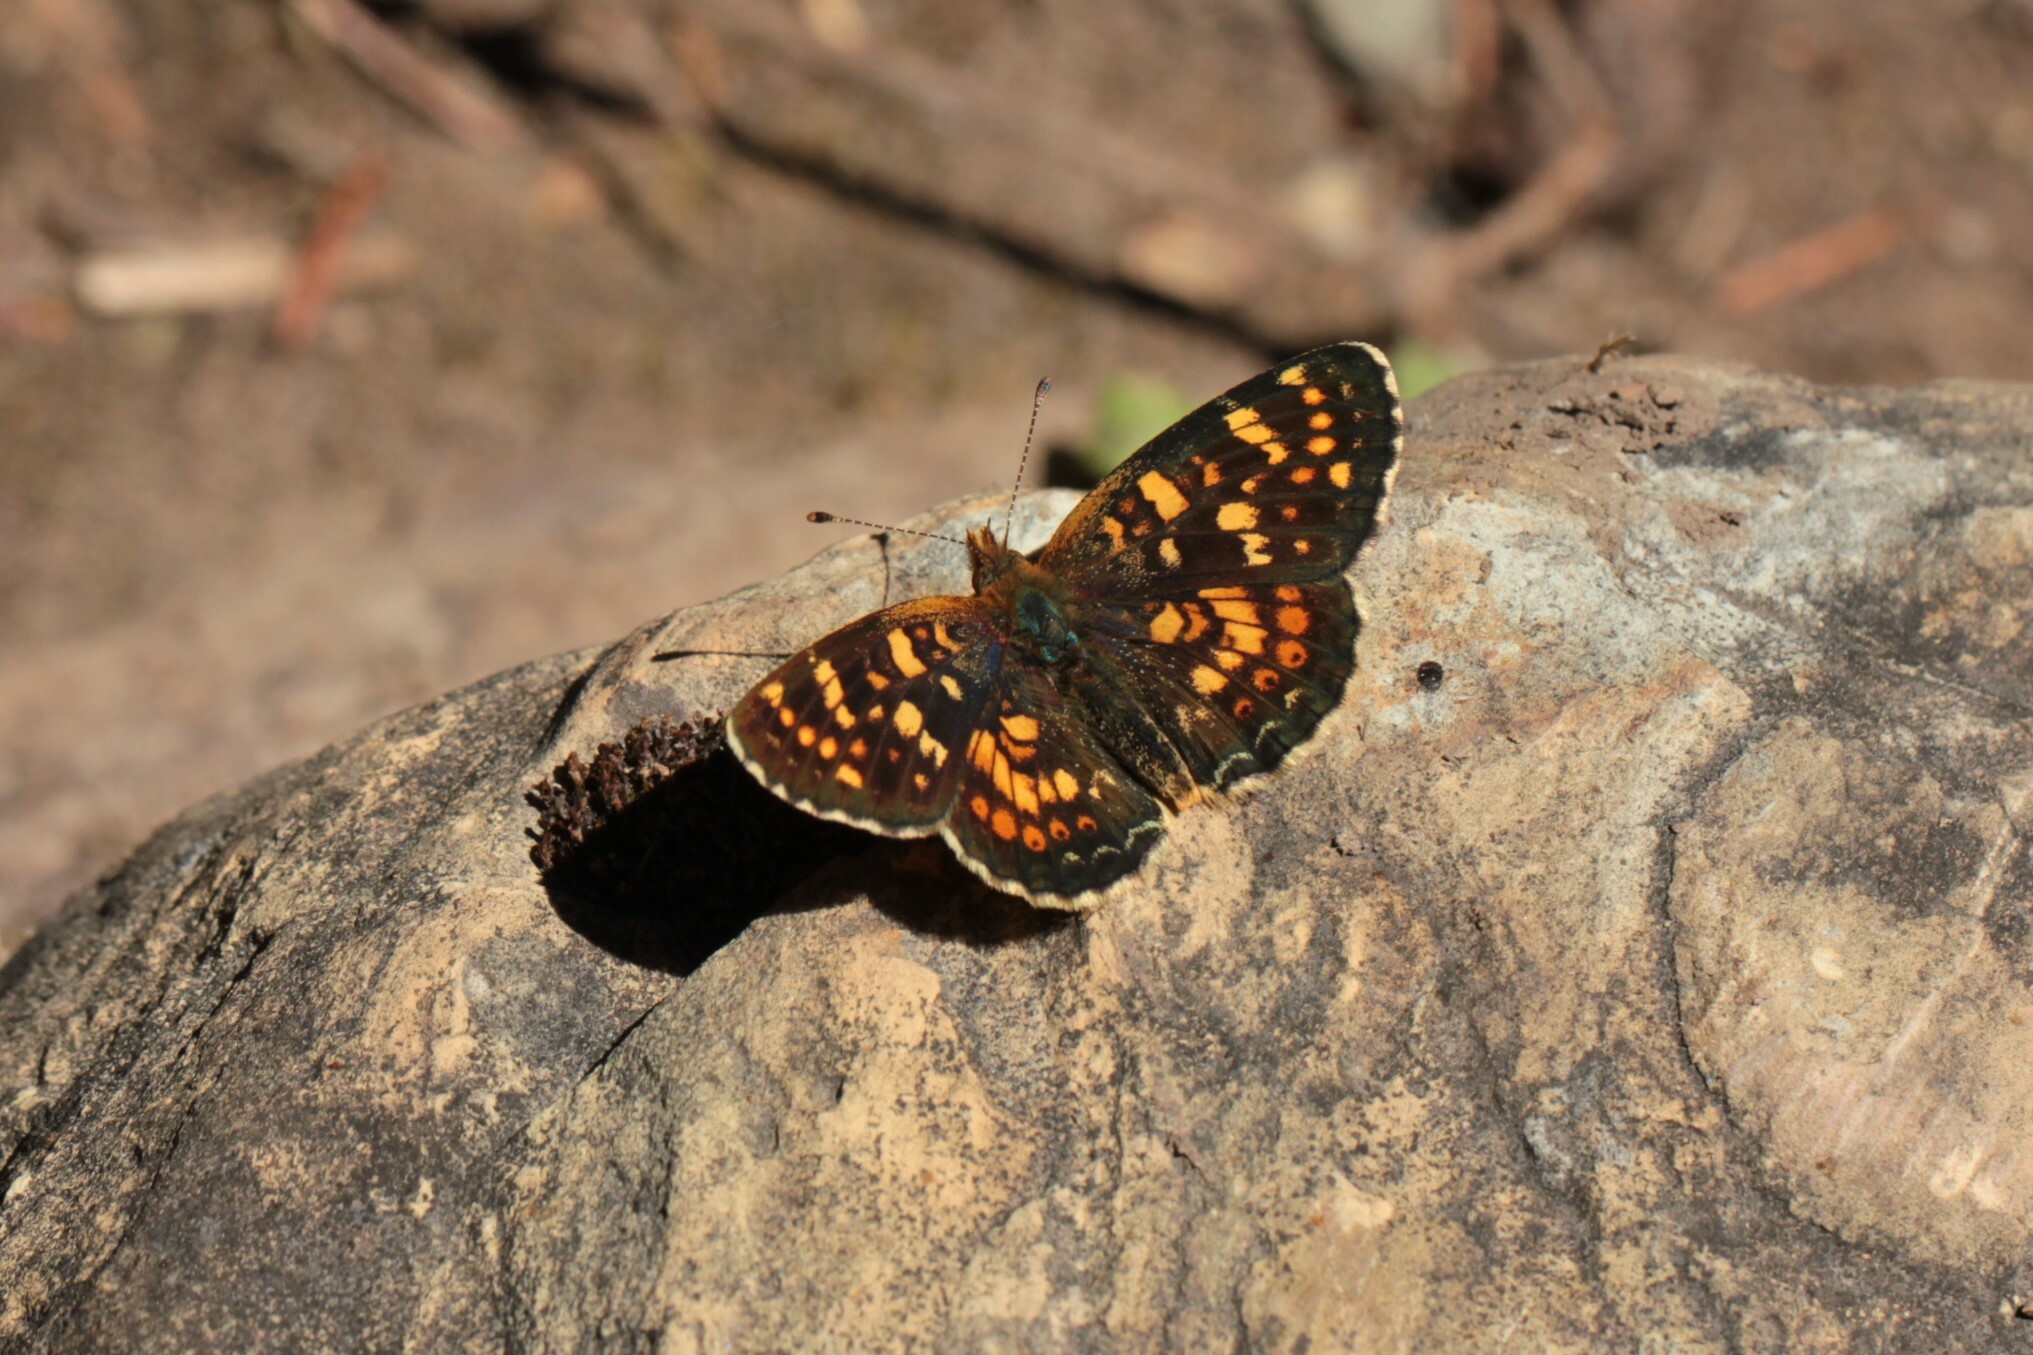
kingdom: Animalia
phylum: Arthropoda
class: Insecta
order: Lepidoptera
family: Nymphalidae
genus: Phyciodes
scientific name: Phyciodes tharos
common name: Pearl crescent
